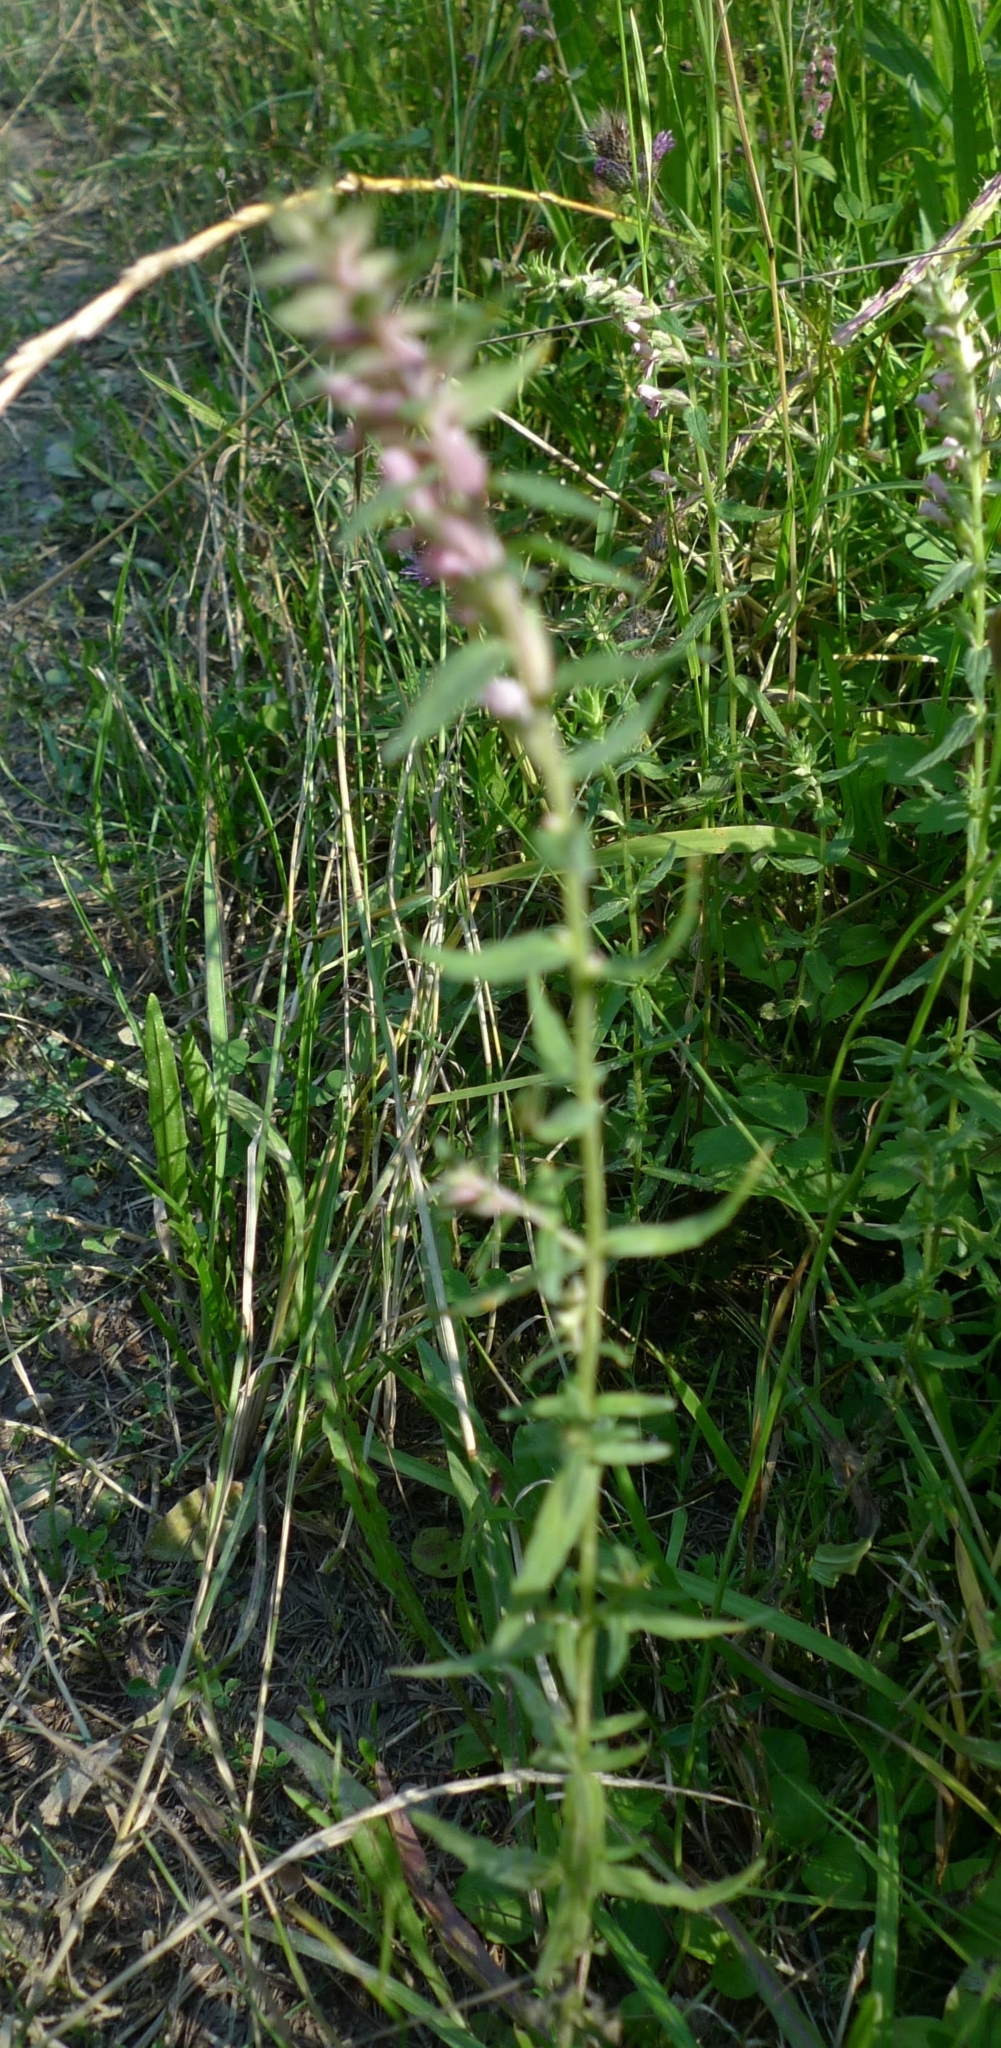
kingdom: Plantae
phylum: Tracheophyta
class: Magnoliopsida
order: Lamiales
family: Orobanchaceae
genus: Odontites
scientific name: Odontites vulgaris
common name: Broomrape
